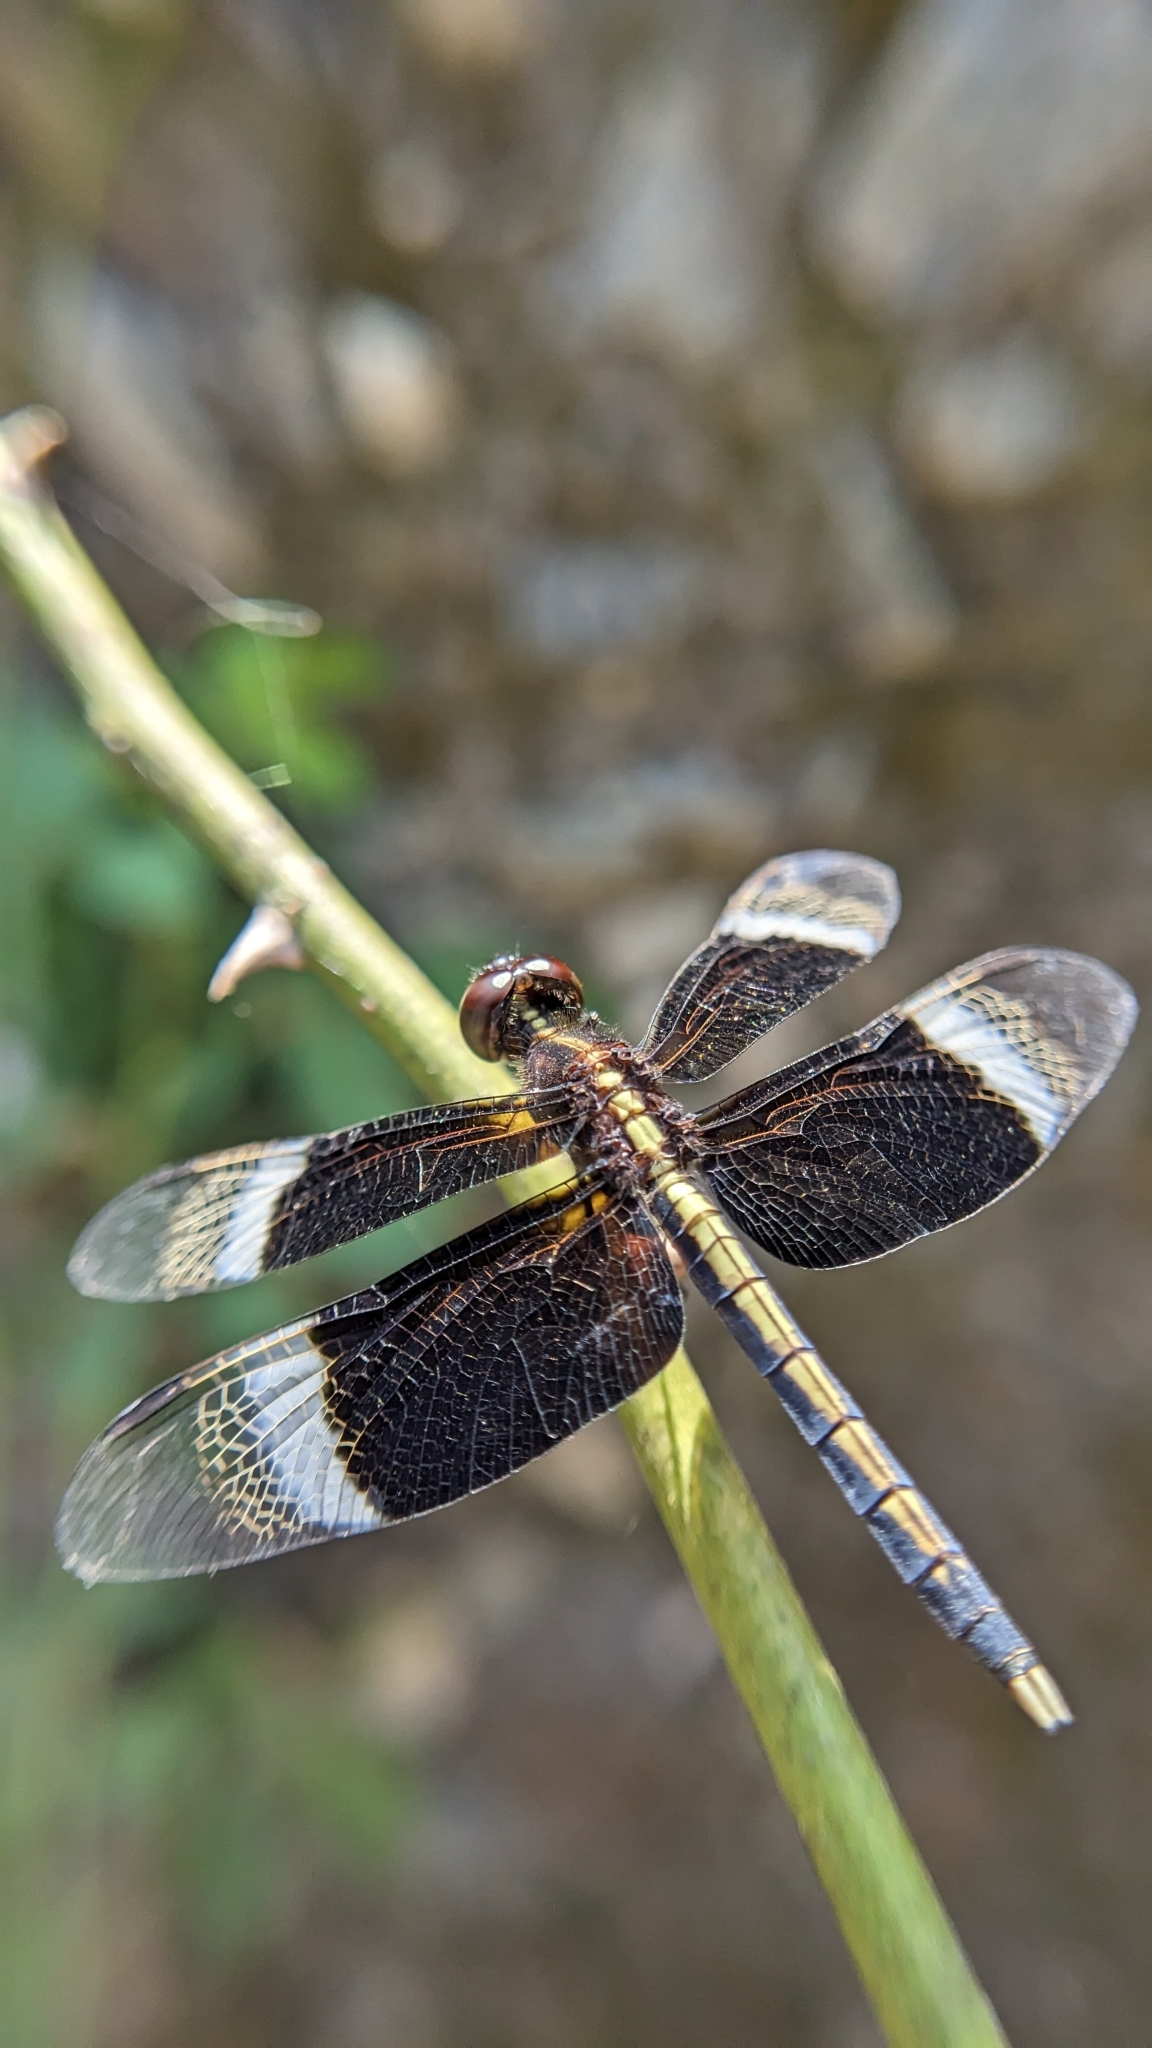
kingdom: Animalia
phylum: Arthropoda
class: Insecta
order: Odonata
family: Libellulidae
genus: Neurothemis
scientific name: Neurothemis tullia
